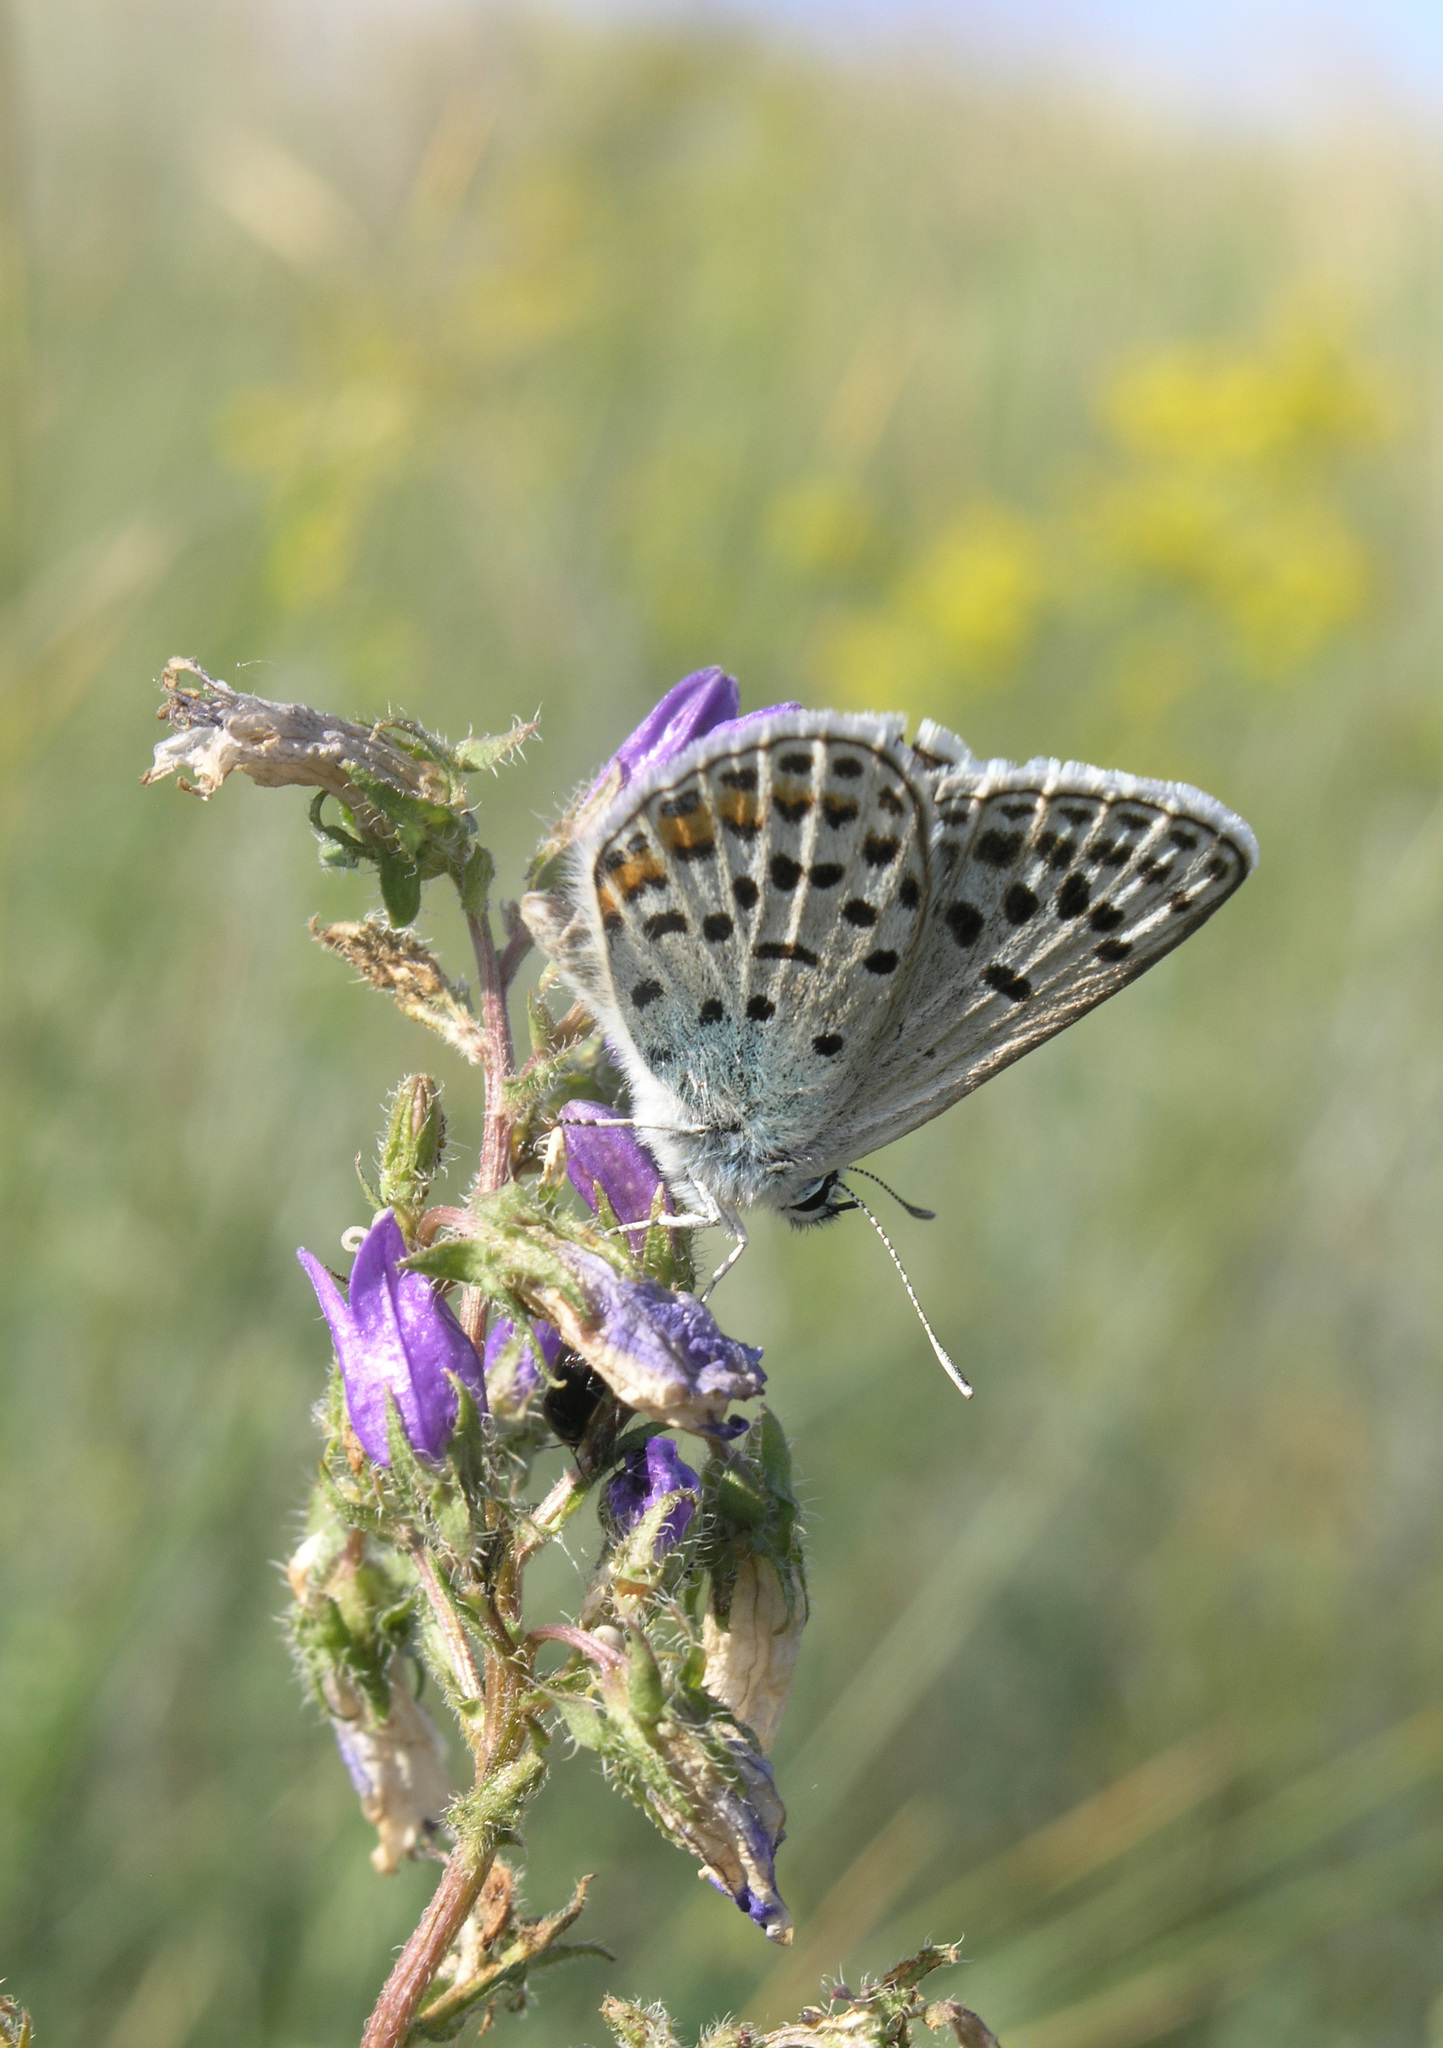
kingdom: Animalia
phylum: Arthropoda
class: Insecta
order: Lepidoptera
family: Lycaenidae
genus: Glabroculus
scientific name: Glabroculus cyane
